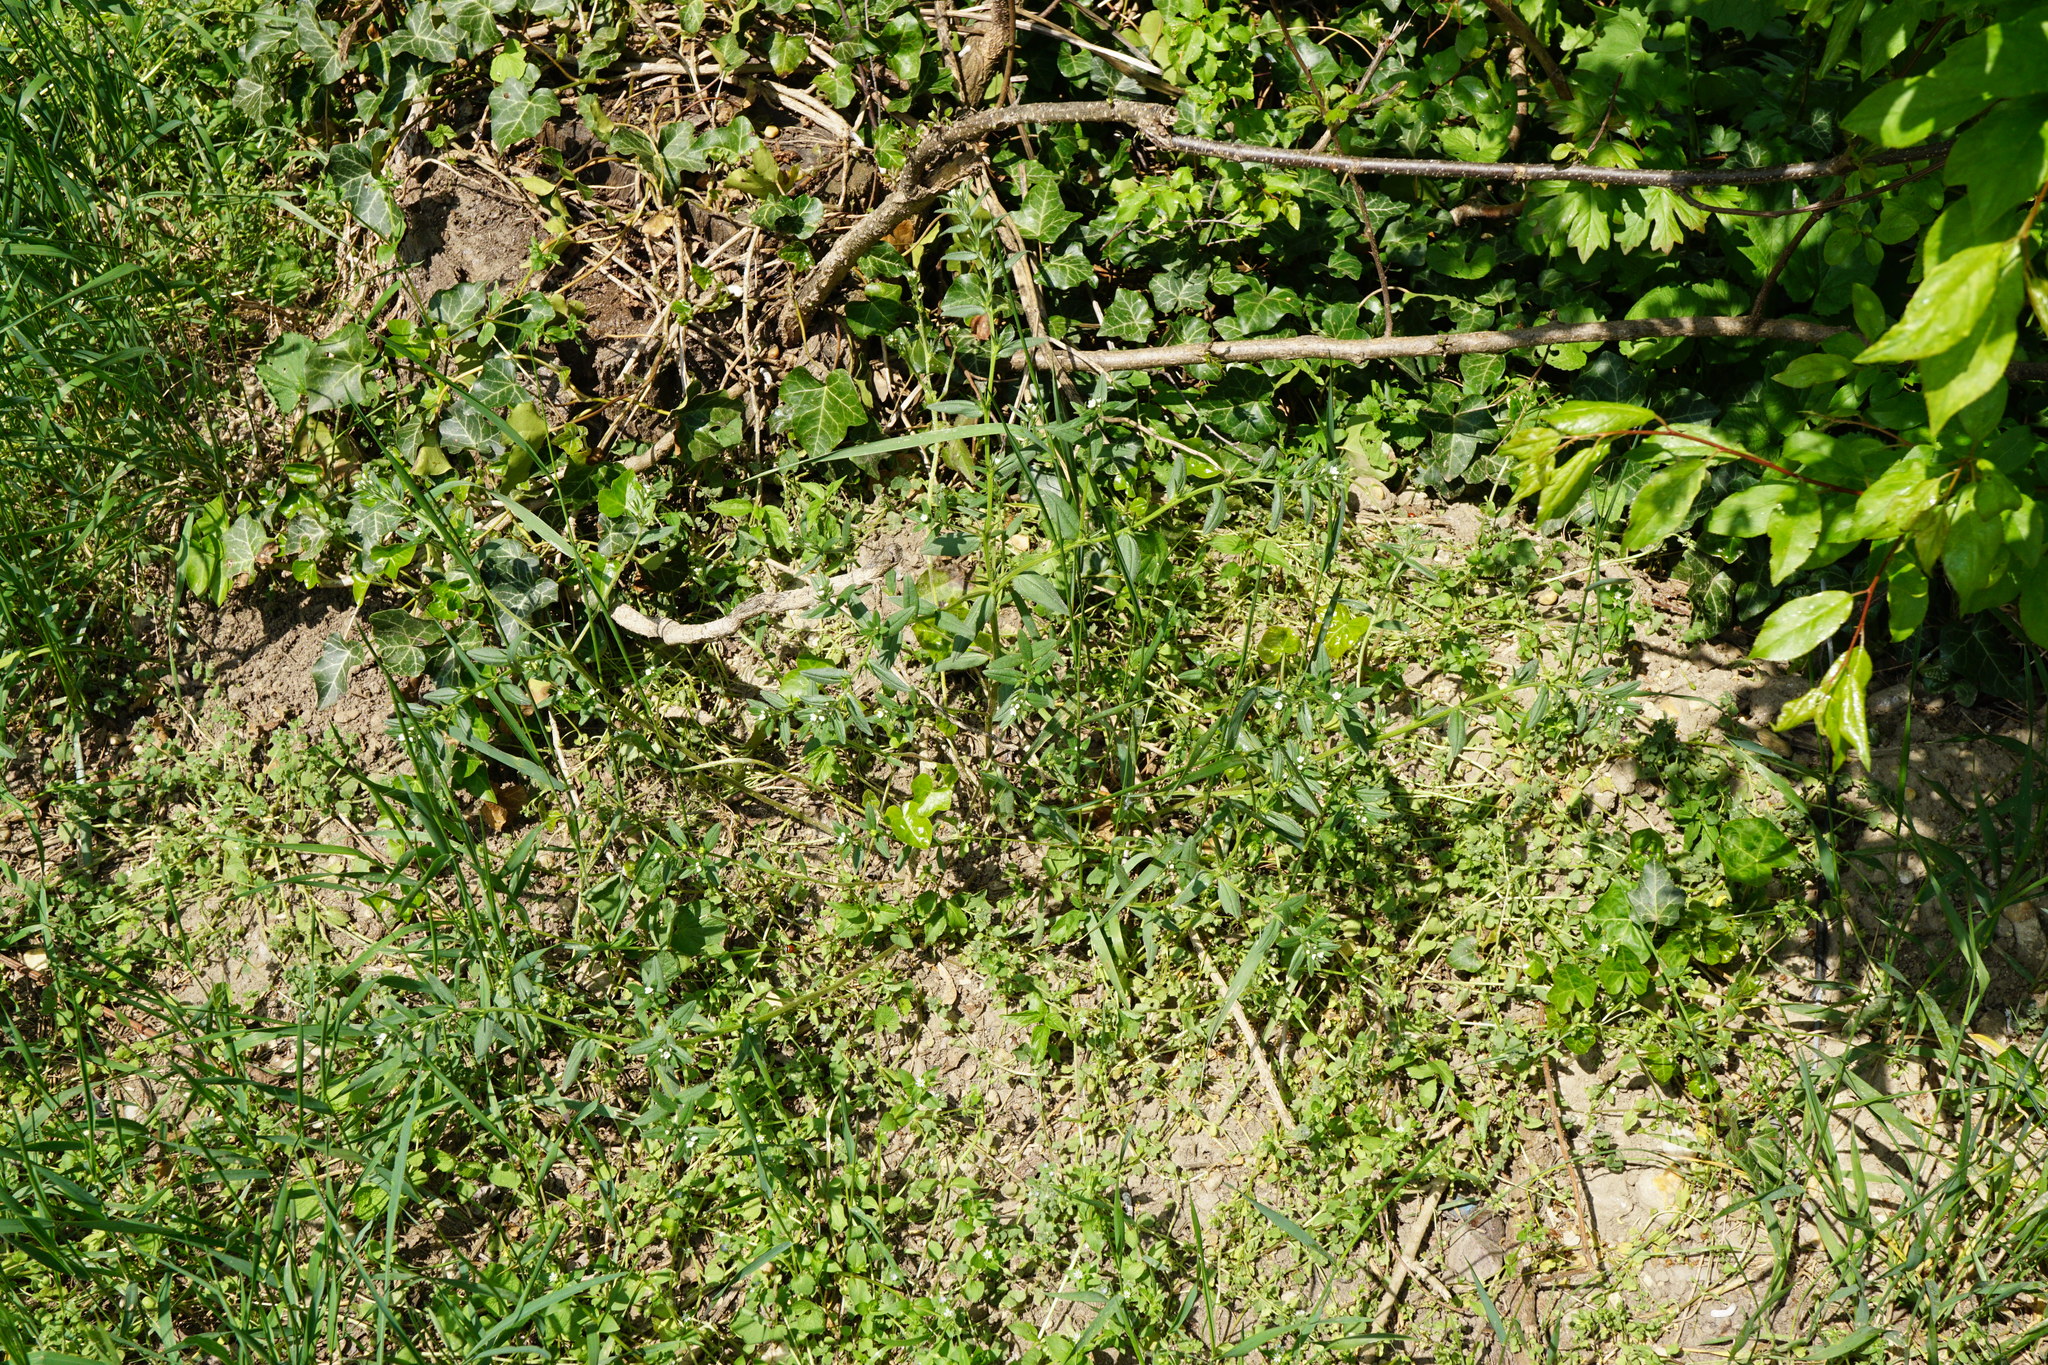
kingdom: Plantae
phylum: Tracheophyta
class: Magnoliopsida
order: Boraginales
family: Boraginaceae
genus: Buglossoides
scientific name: Buglossoides arvensis
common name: Corn gromwell
